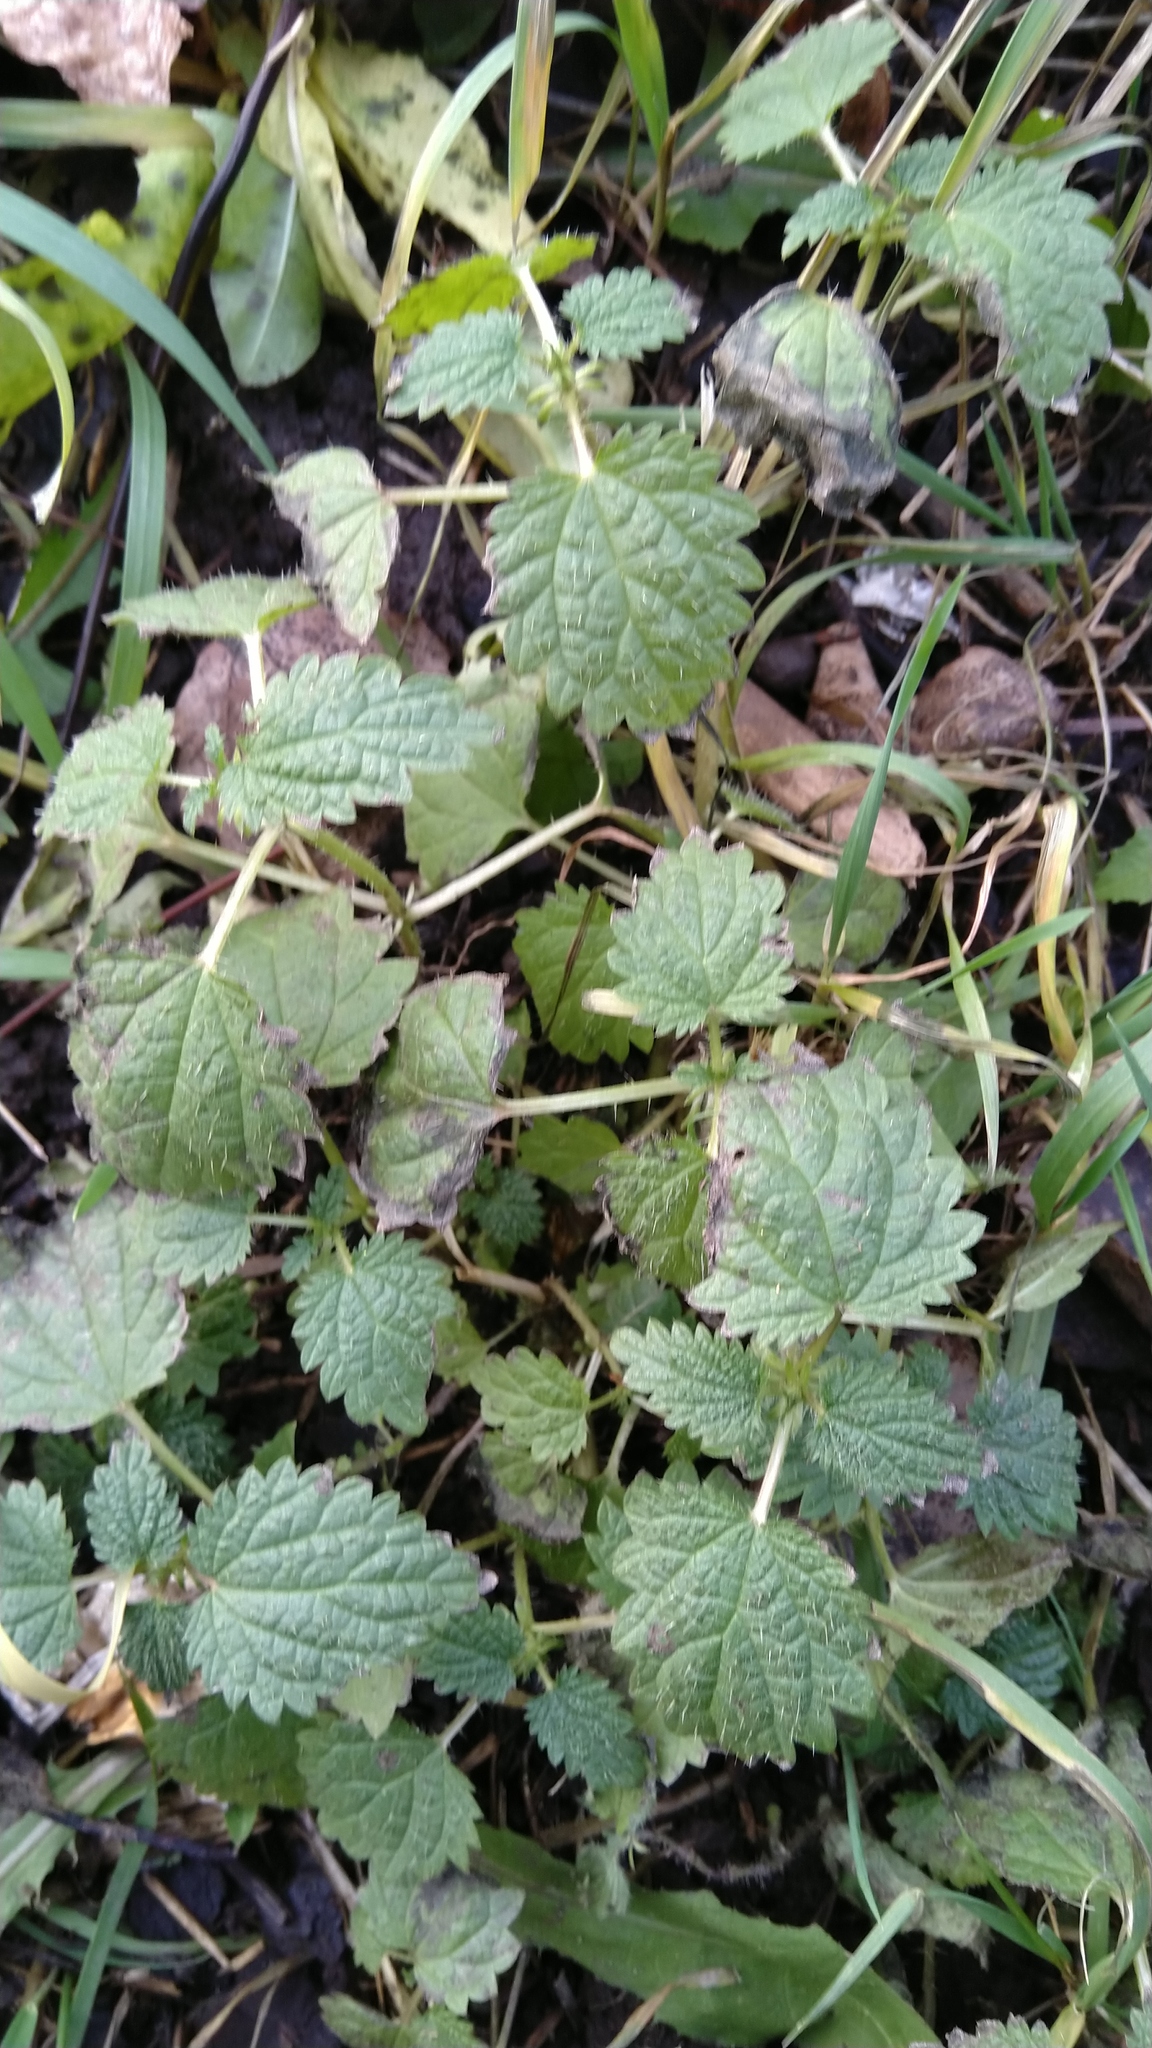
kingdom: Plantae
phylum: Tracheophyta
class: Magnoliopsida
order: Rosales
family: Urticaceae
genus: Urtica
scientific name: Urtica dioica
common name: Common nettle
